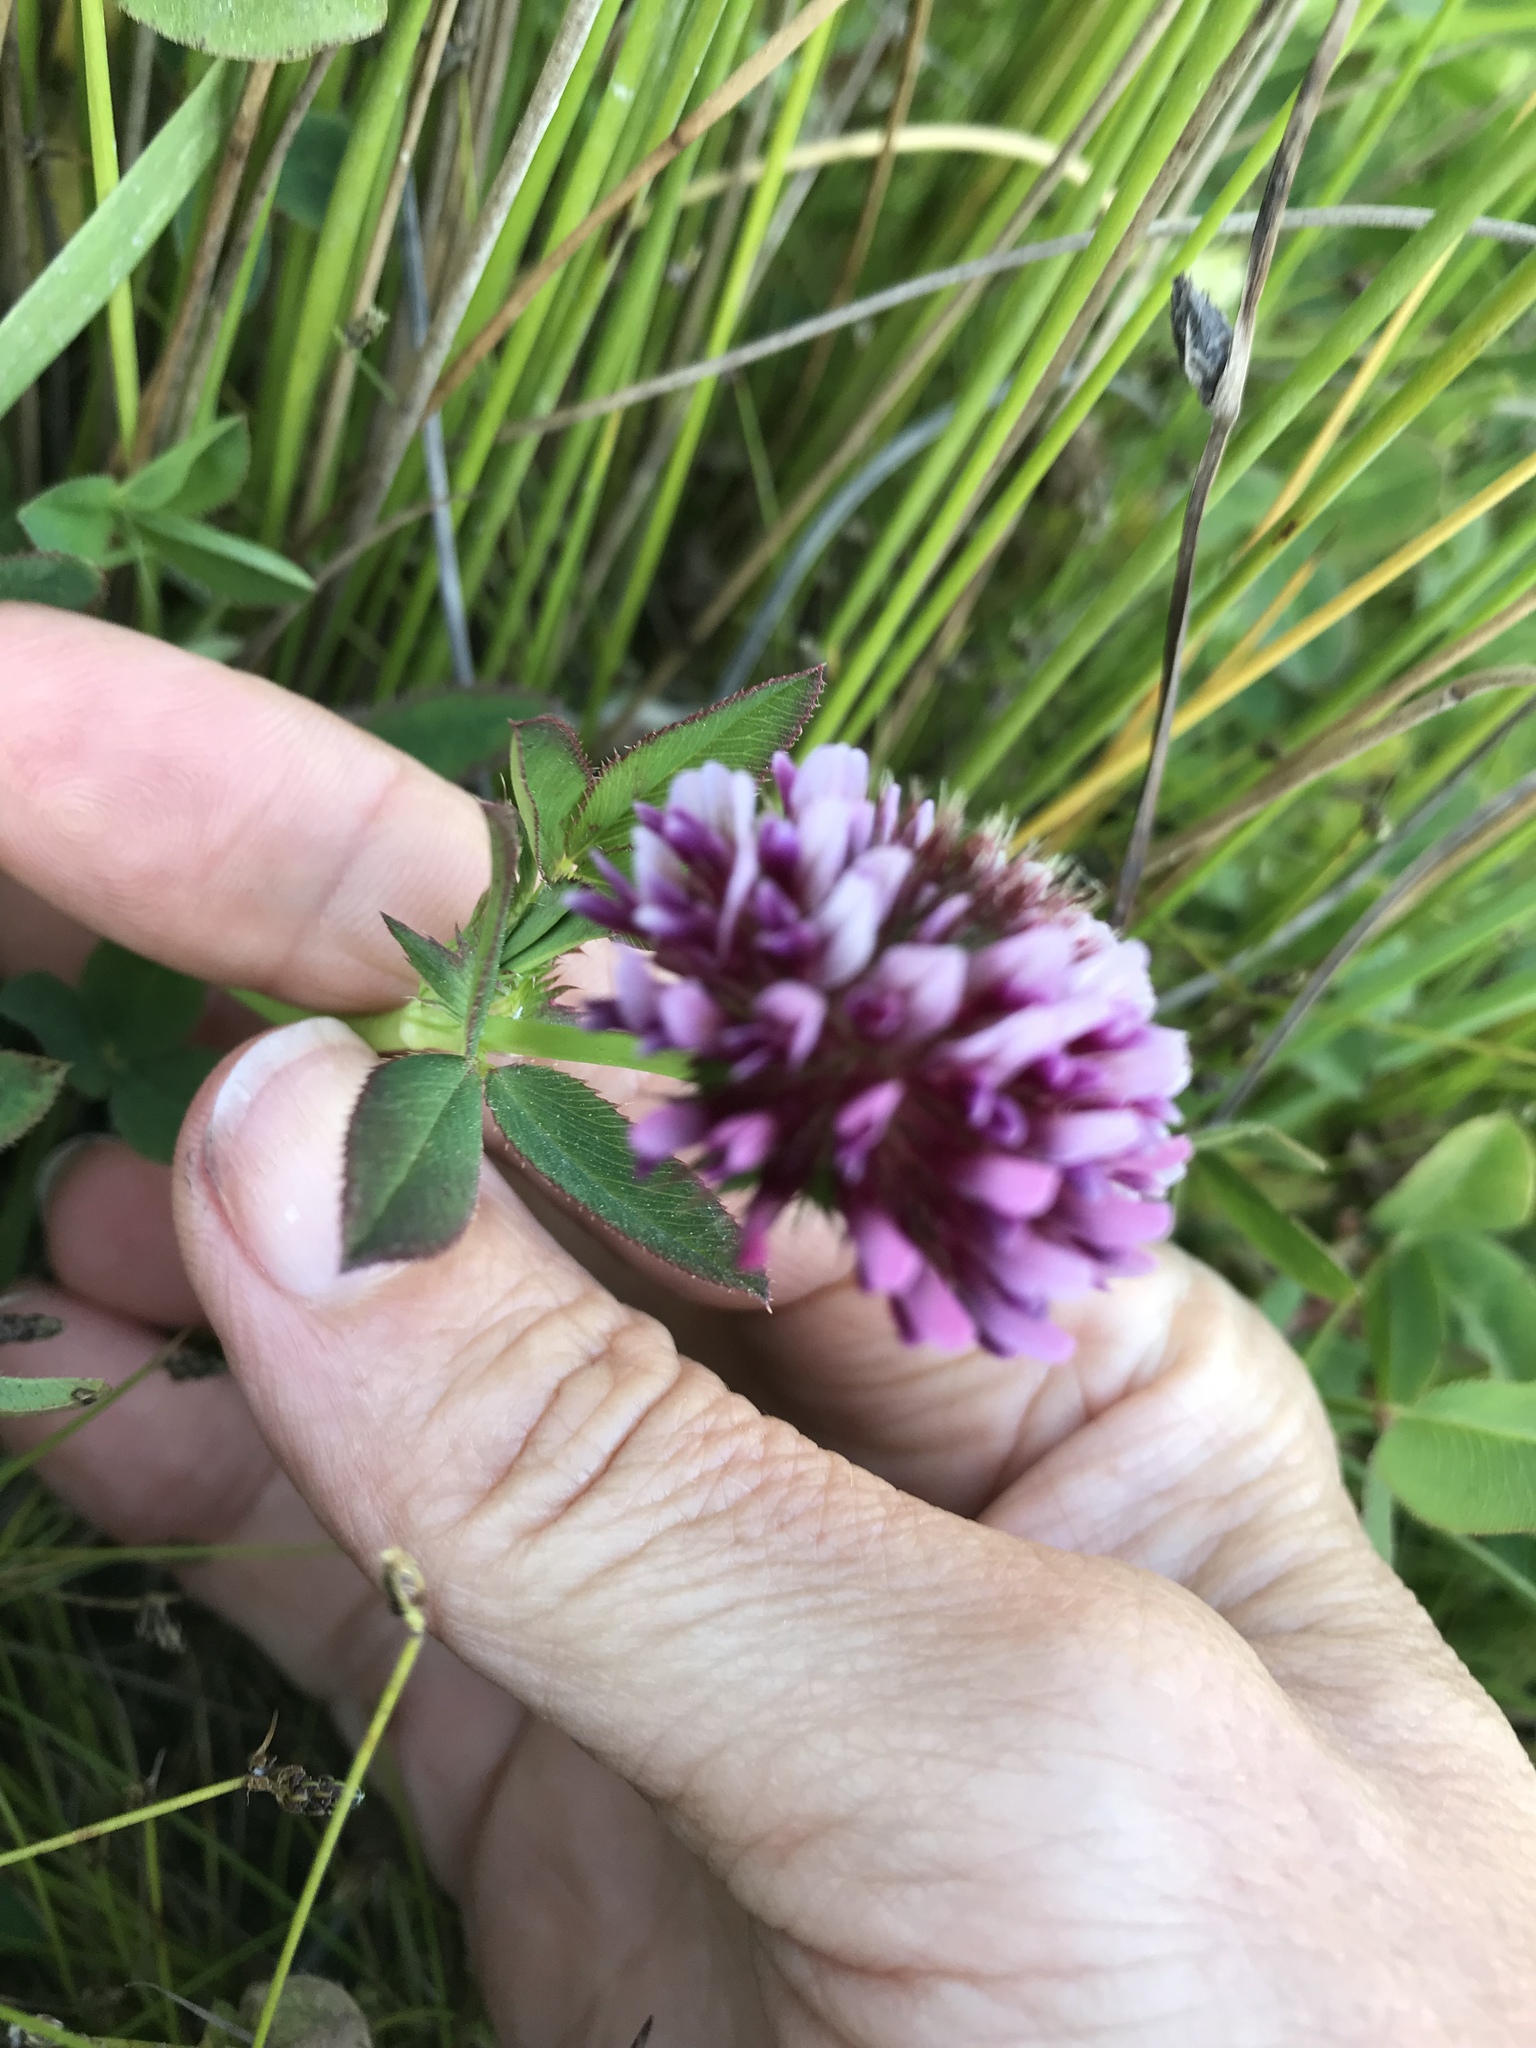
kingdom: Plantae
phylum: Tracheophyta
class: Magnoliopsida
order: Fabales
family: Fabaceae
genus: Trifolium
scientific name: Trifolium wormskioldii
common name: Springbank clover
